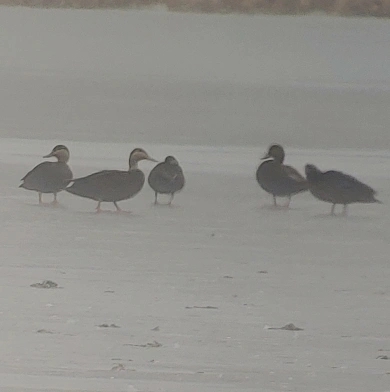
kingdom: Animalia
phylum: Chordata
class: Aves
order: Anseriformes
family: Anatidae
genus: Anas
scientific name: Anas rubripes
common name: American black duck
